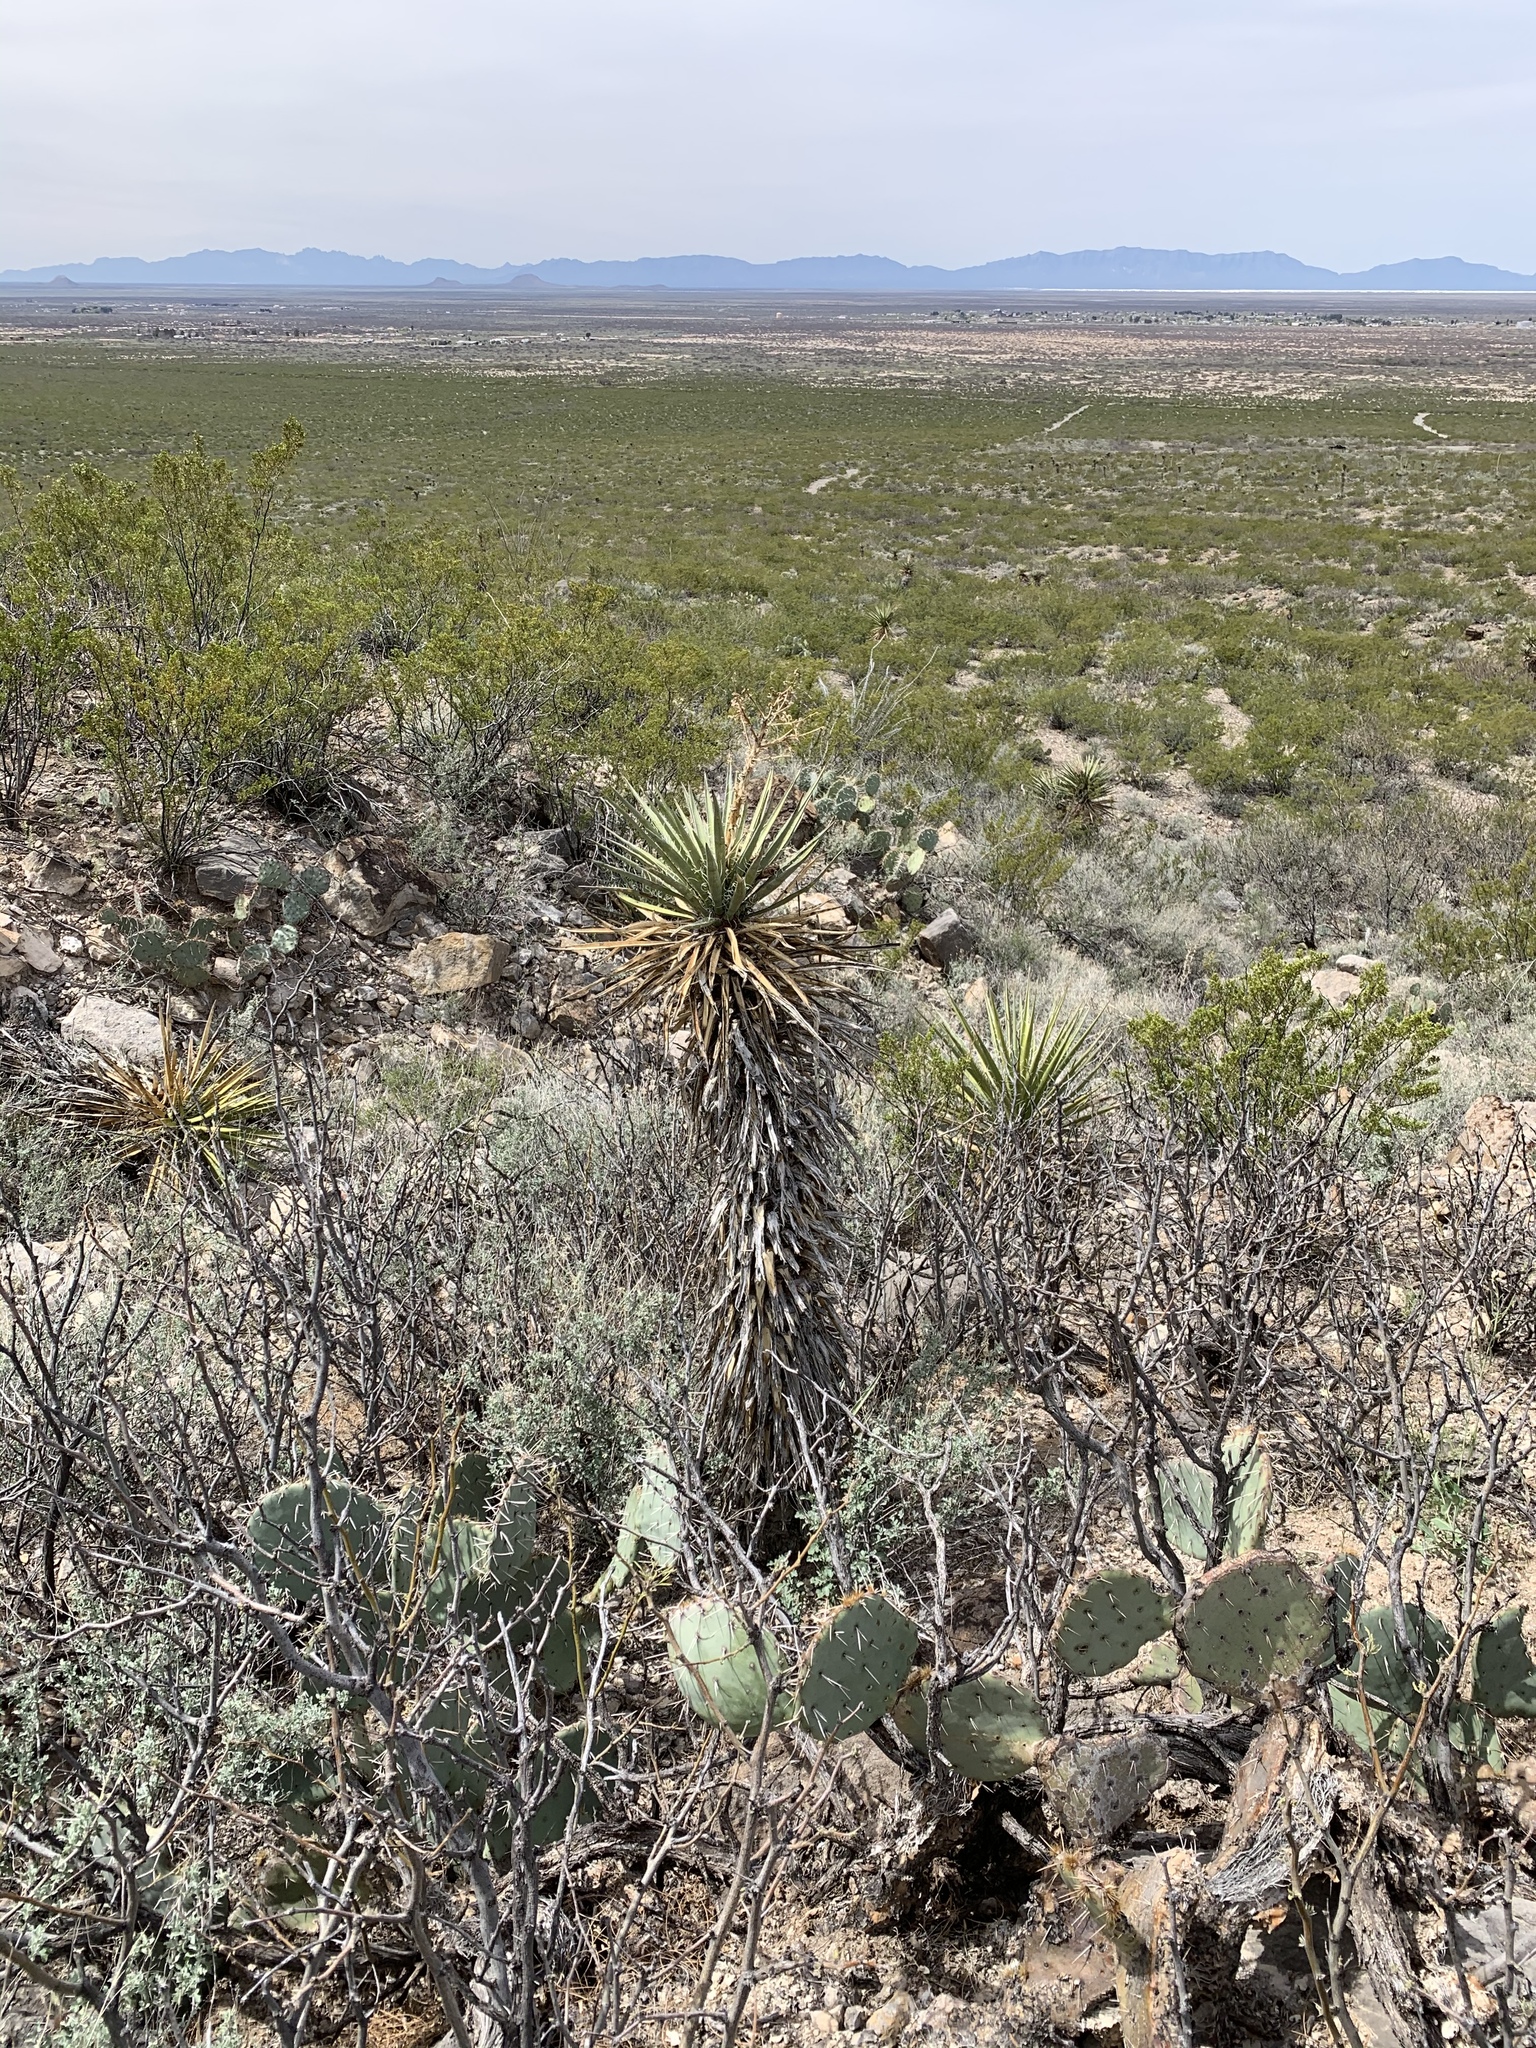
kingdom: Plantae
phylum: Tracheophyta
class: Liliopsida
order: Asparagales
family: Asparagaceae
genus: Yucca
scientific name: Yucca baccata
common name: Banana yucca
